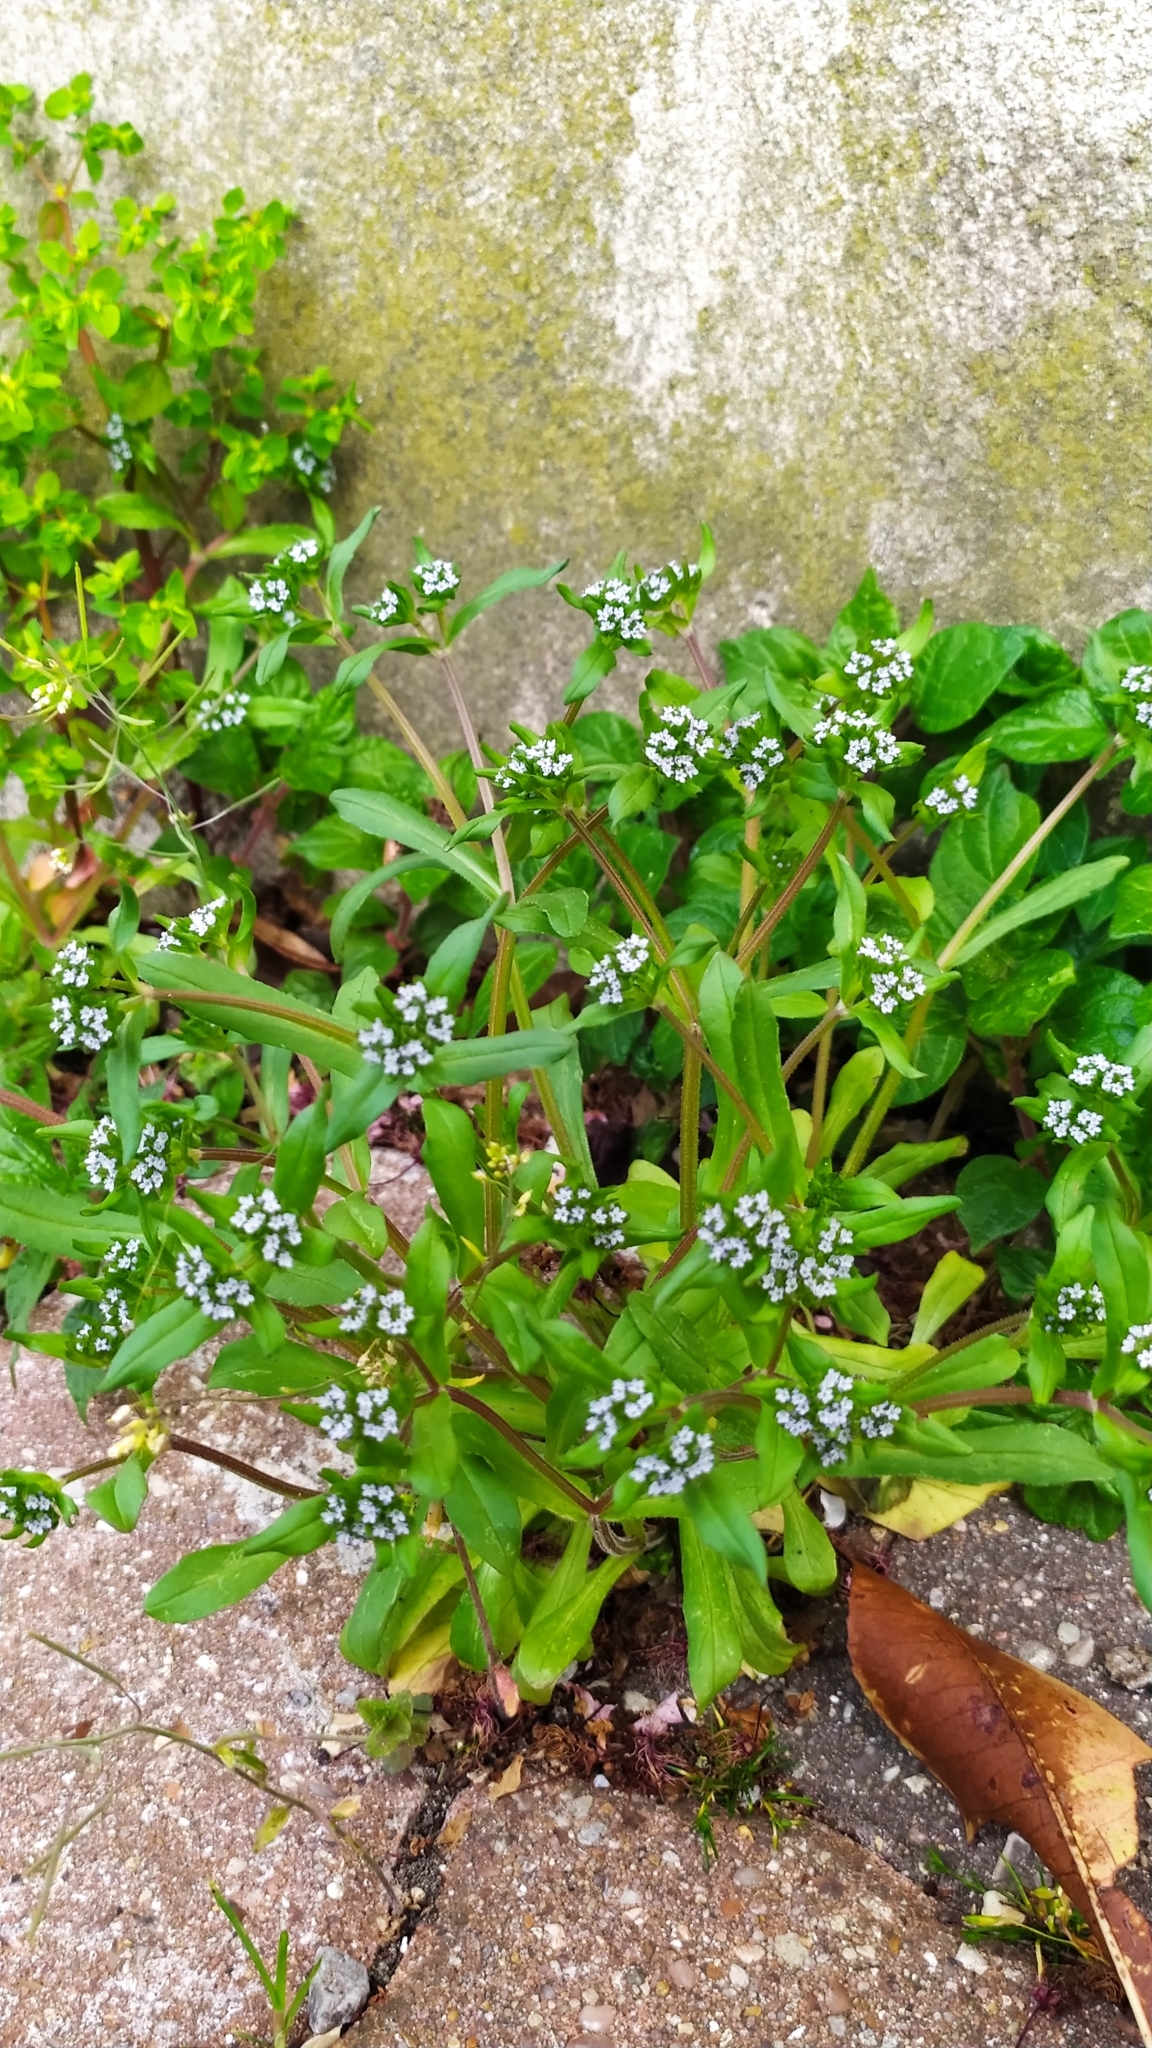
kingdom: Plantae
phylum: Tracheophyta
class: Magnoliopsida
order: Dipsacales
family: Caprifoliaceae
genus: Valerianella
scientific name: Valerianella locusta
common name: Common cornsalad
